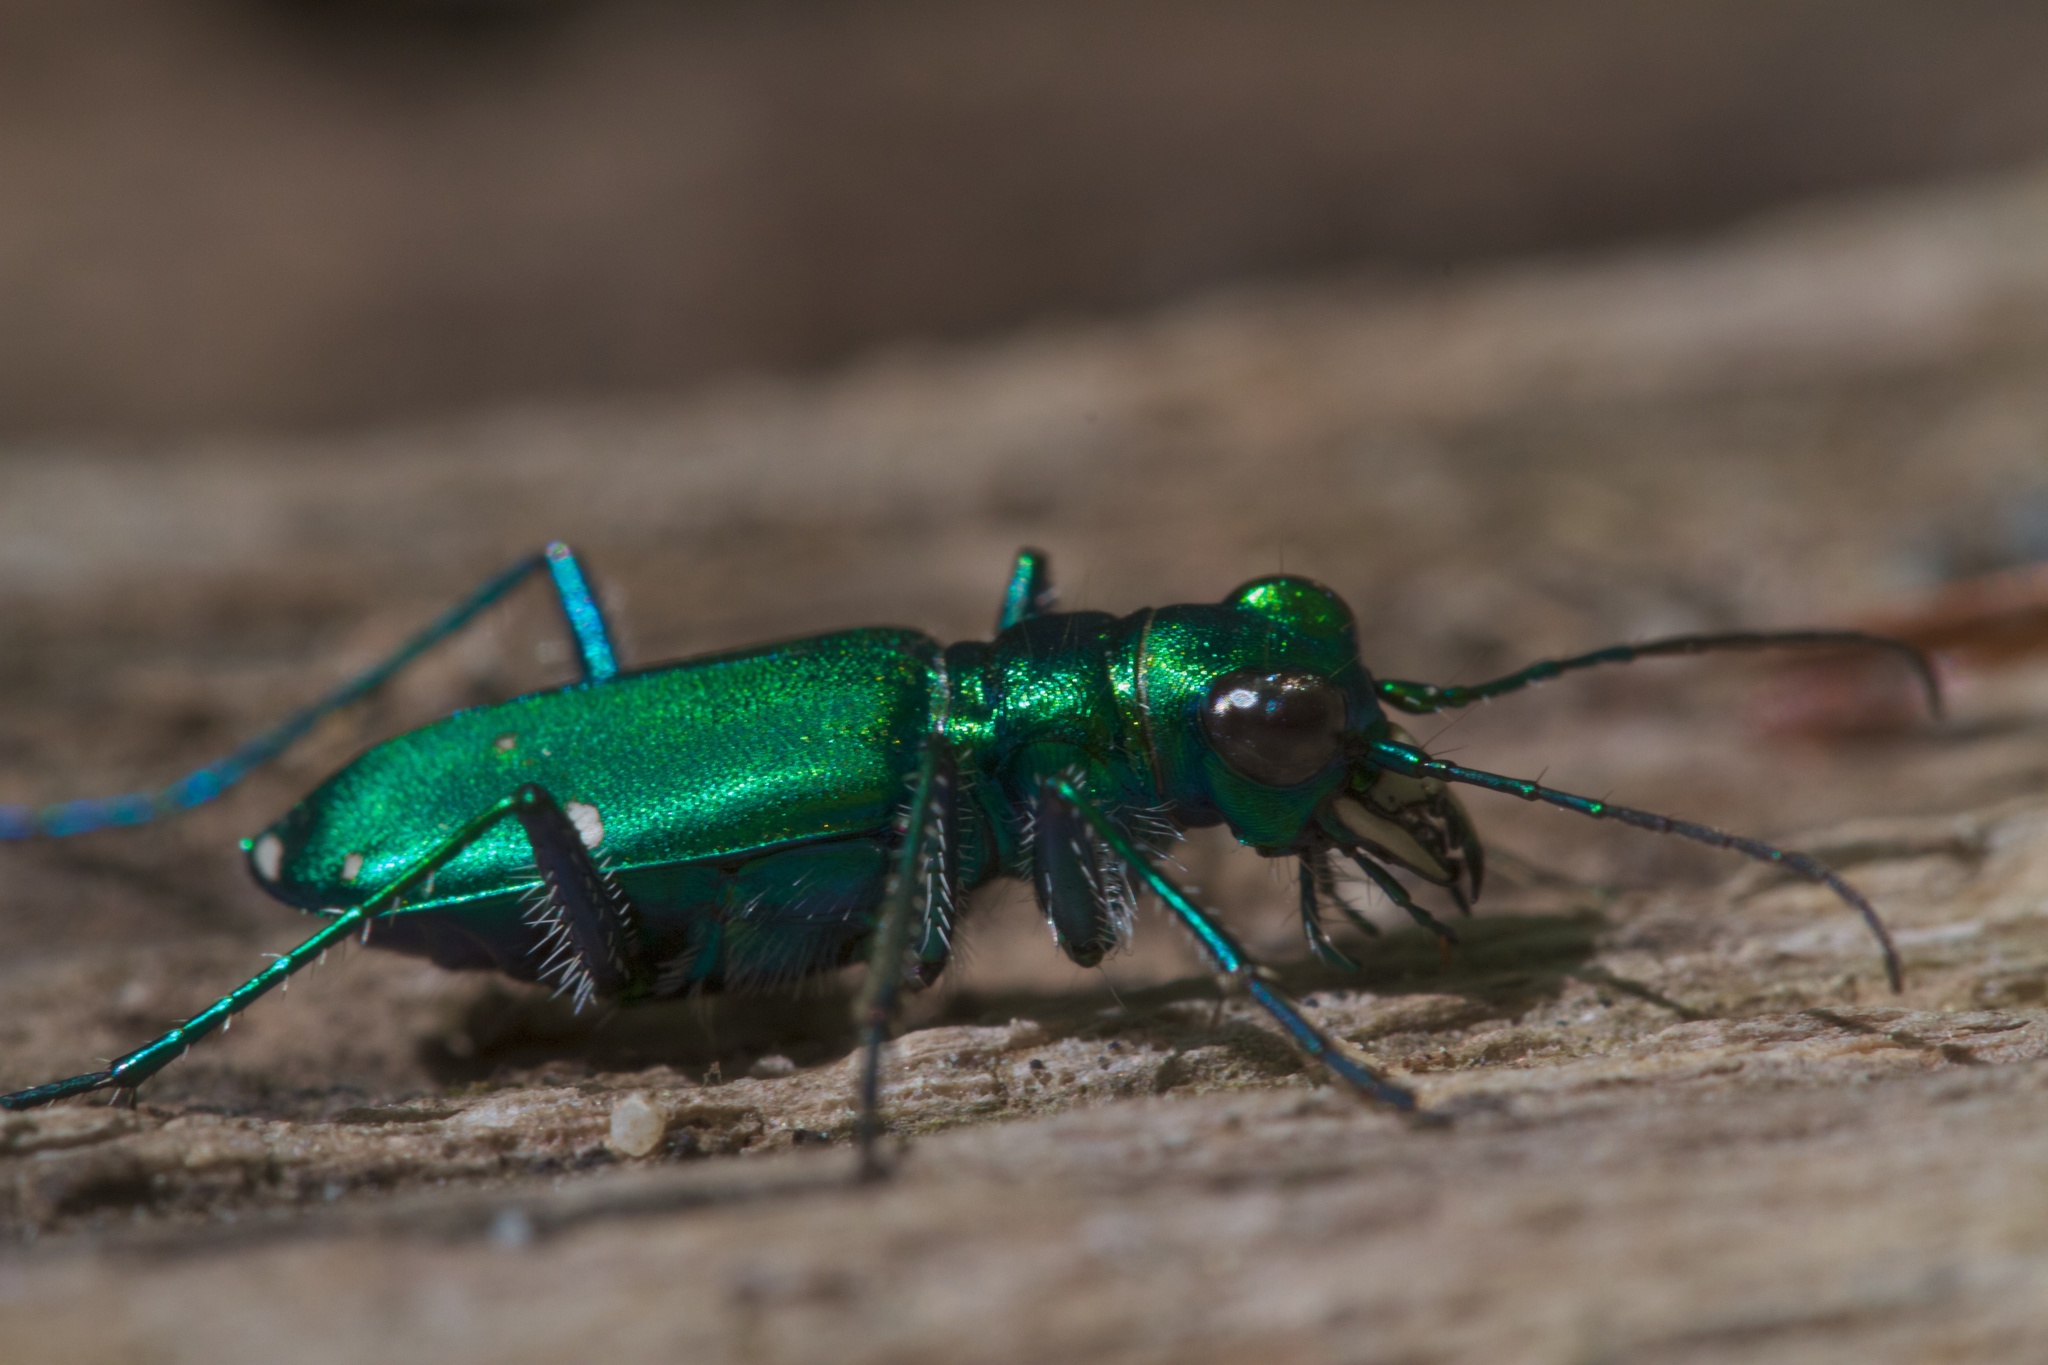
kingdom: Animalia
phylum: Arthropoda
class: Insecta
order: Coleoptera
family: Carabidae
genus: Cicindela
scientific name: Cicindela sexguttata
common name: Six-spotted tiger beetle
